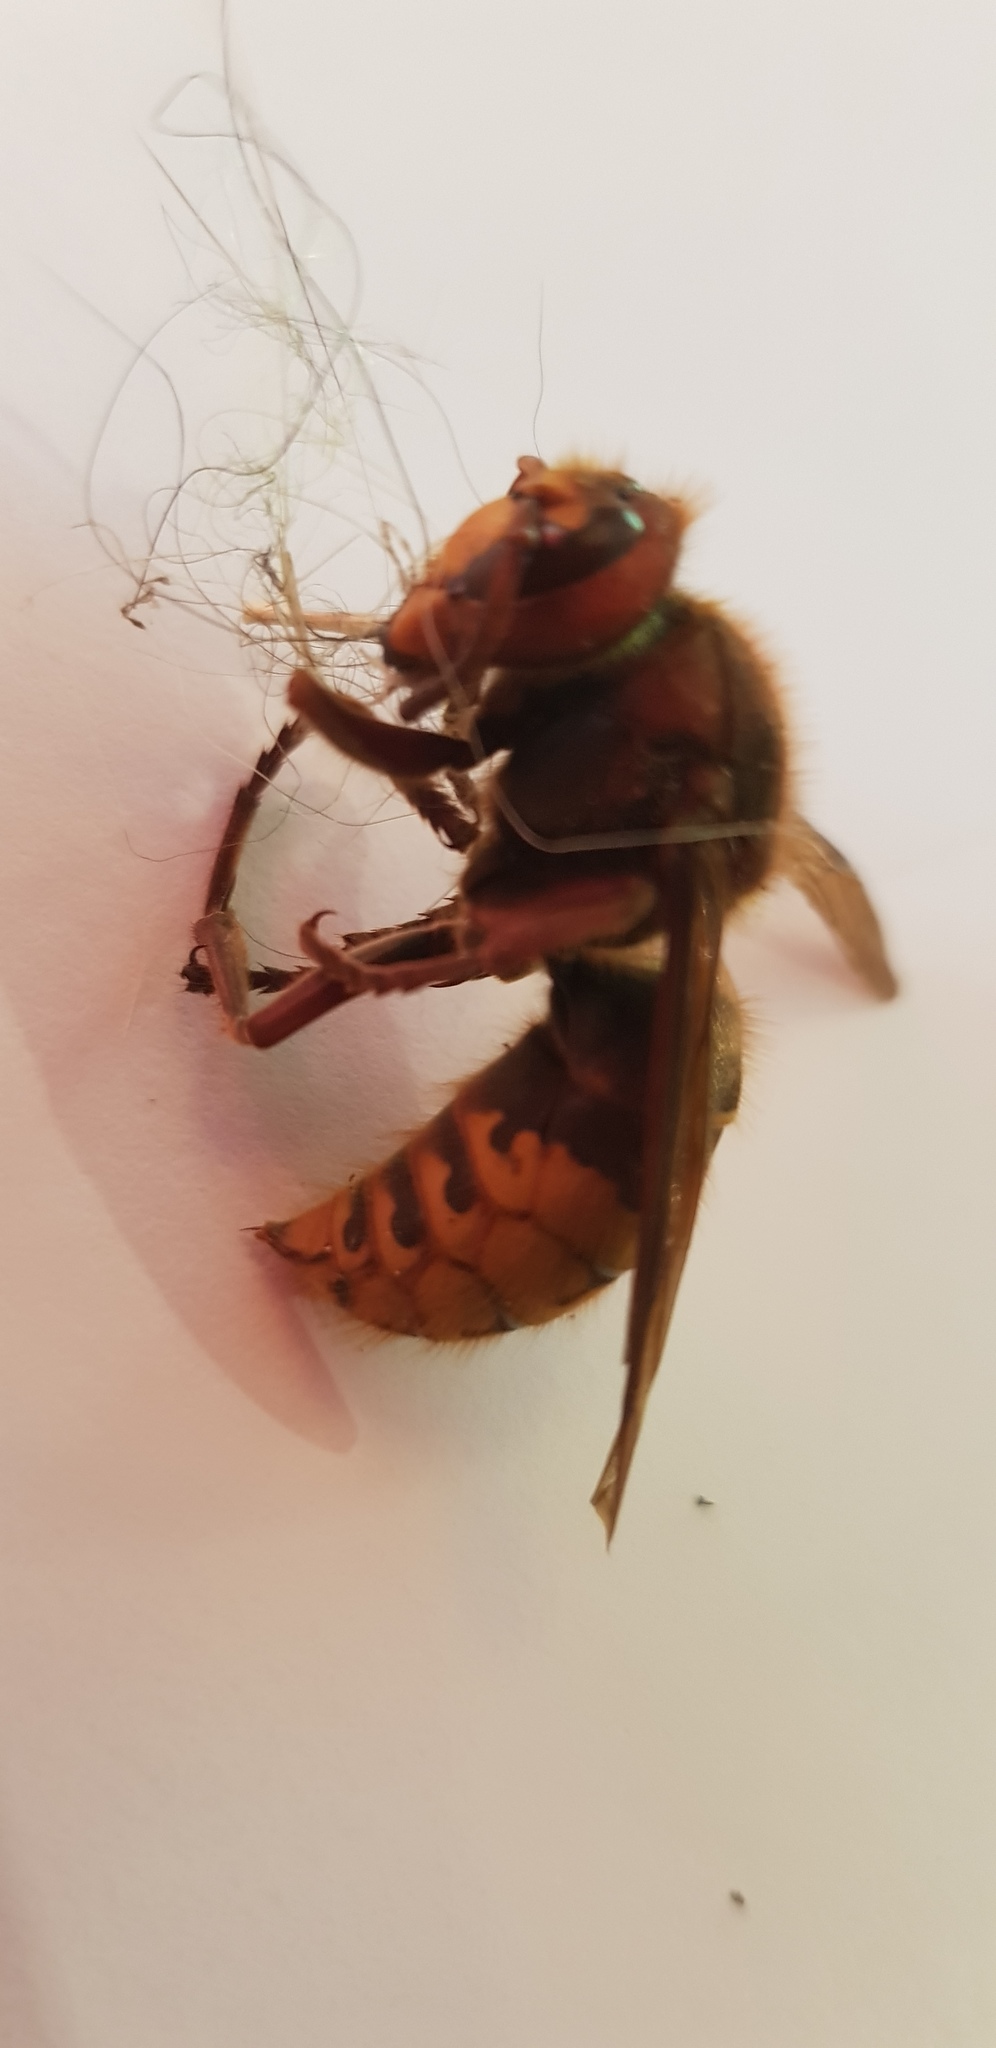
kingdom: Animalia
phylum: Arthropoda
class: Insecta
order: Hymenoptera
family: Vespidae
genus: Vespa
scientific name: Vespa crabro
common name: Hornet
